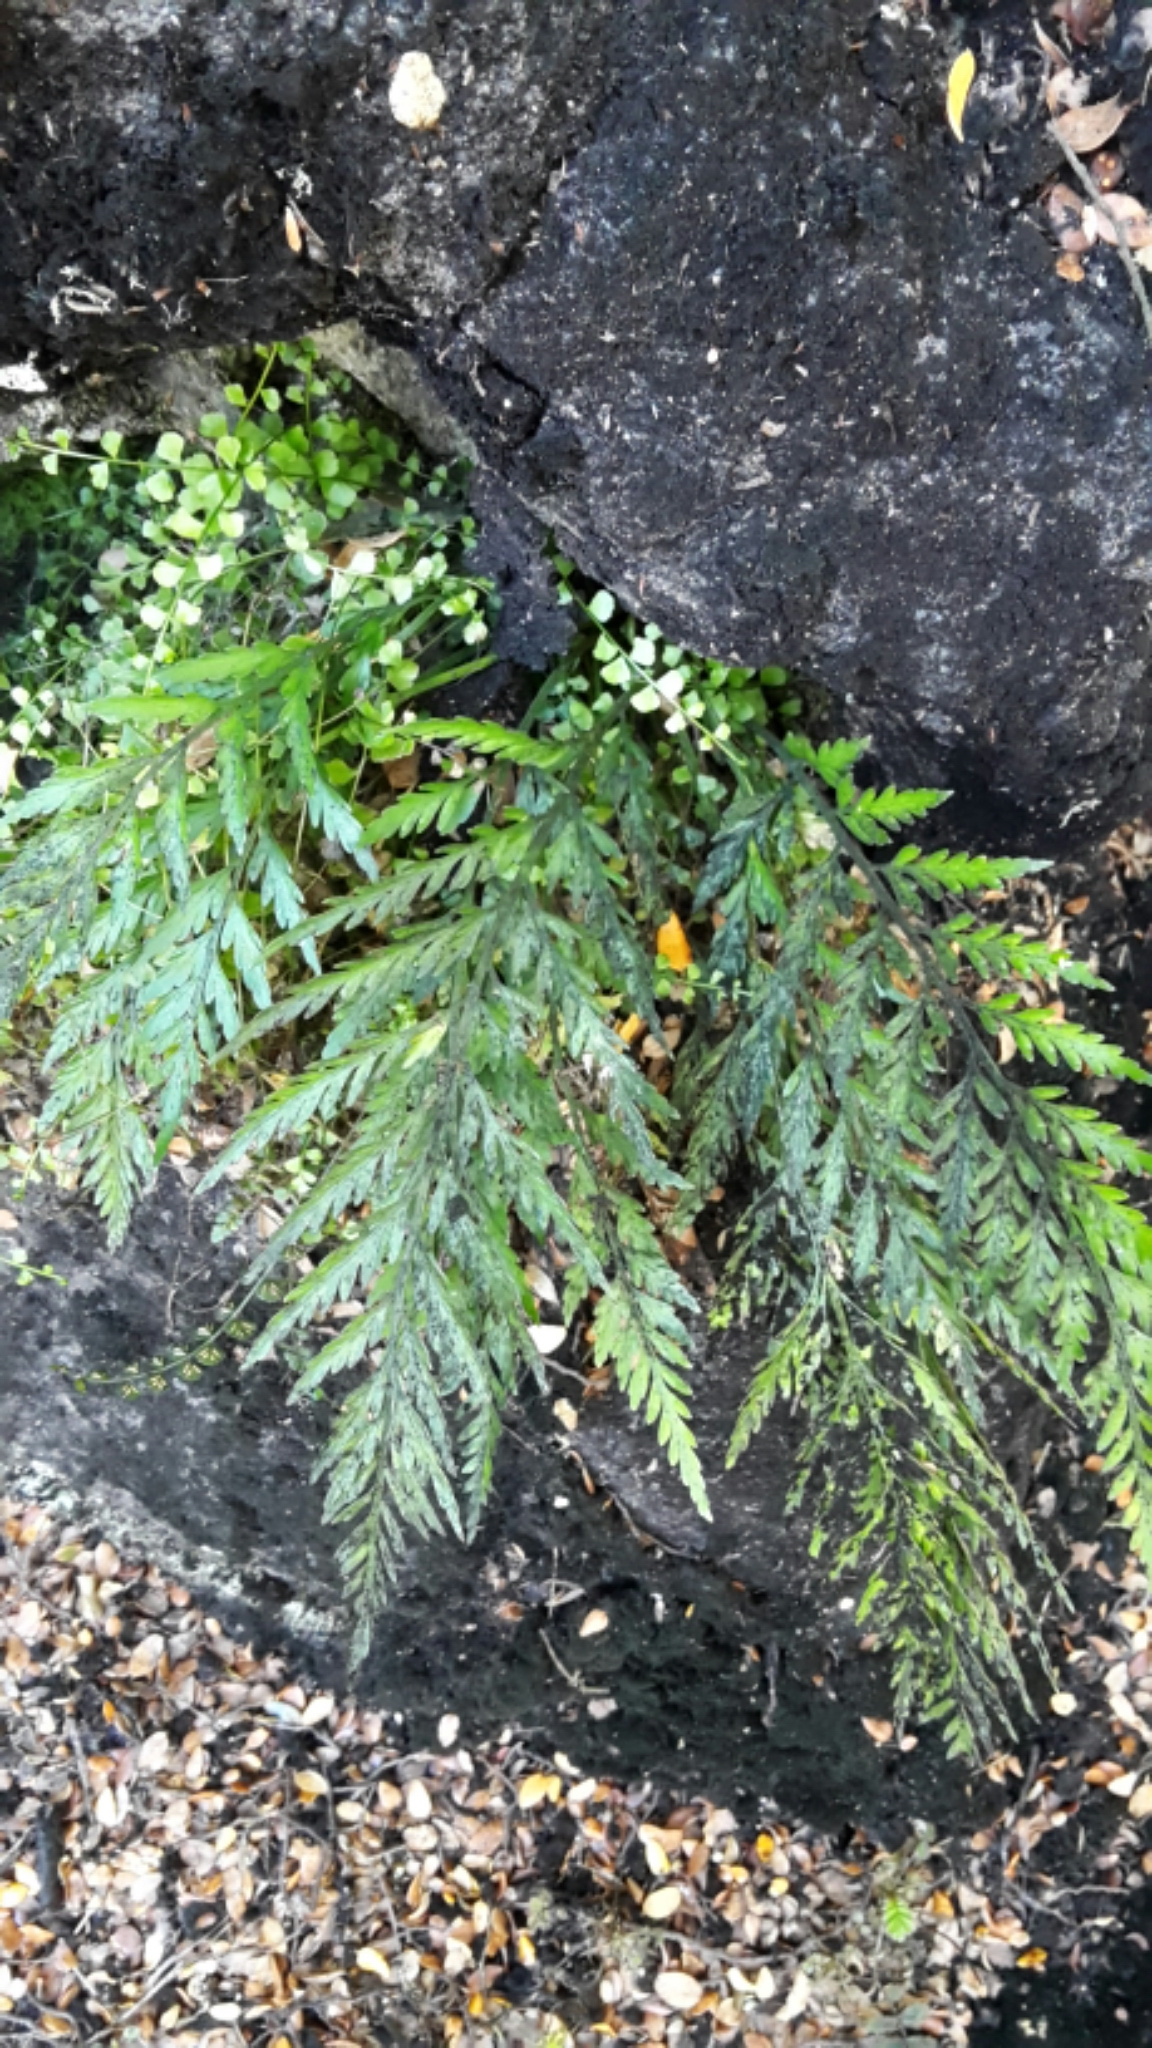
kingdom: Plantae
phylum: Tracheophyta
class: Polypodiopsida
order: Polypodiales
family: Aspleniaceae
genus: Asplenium
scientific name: Asplenium appendiculatum
